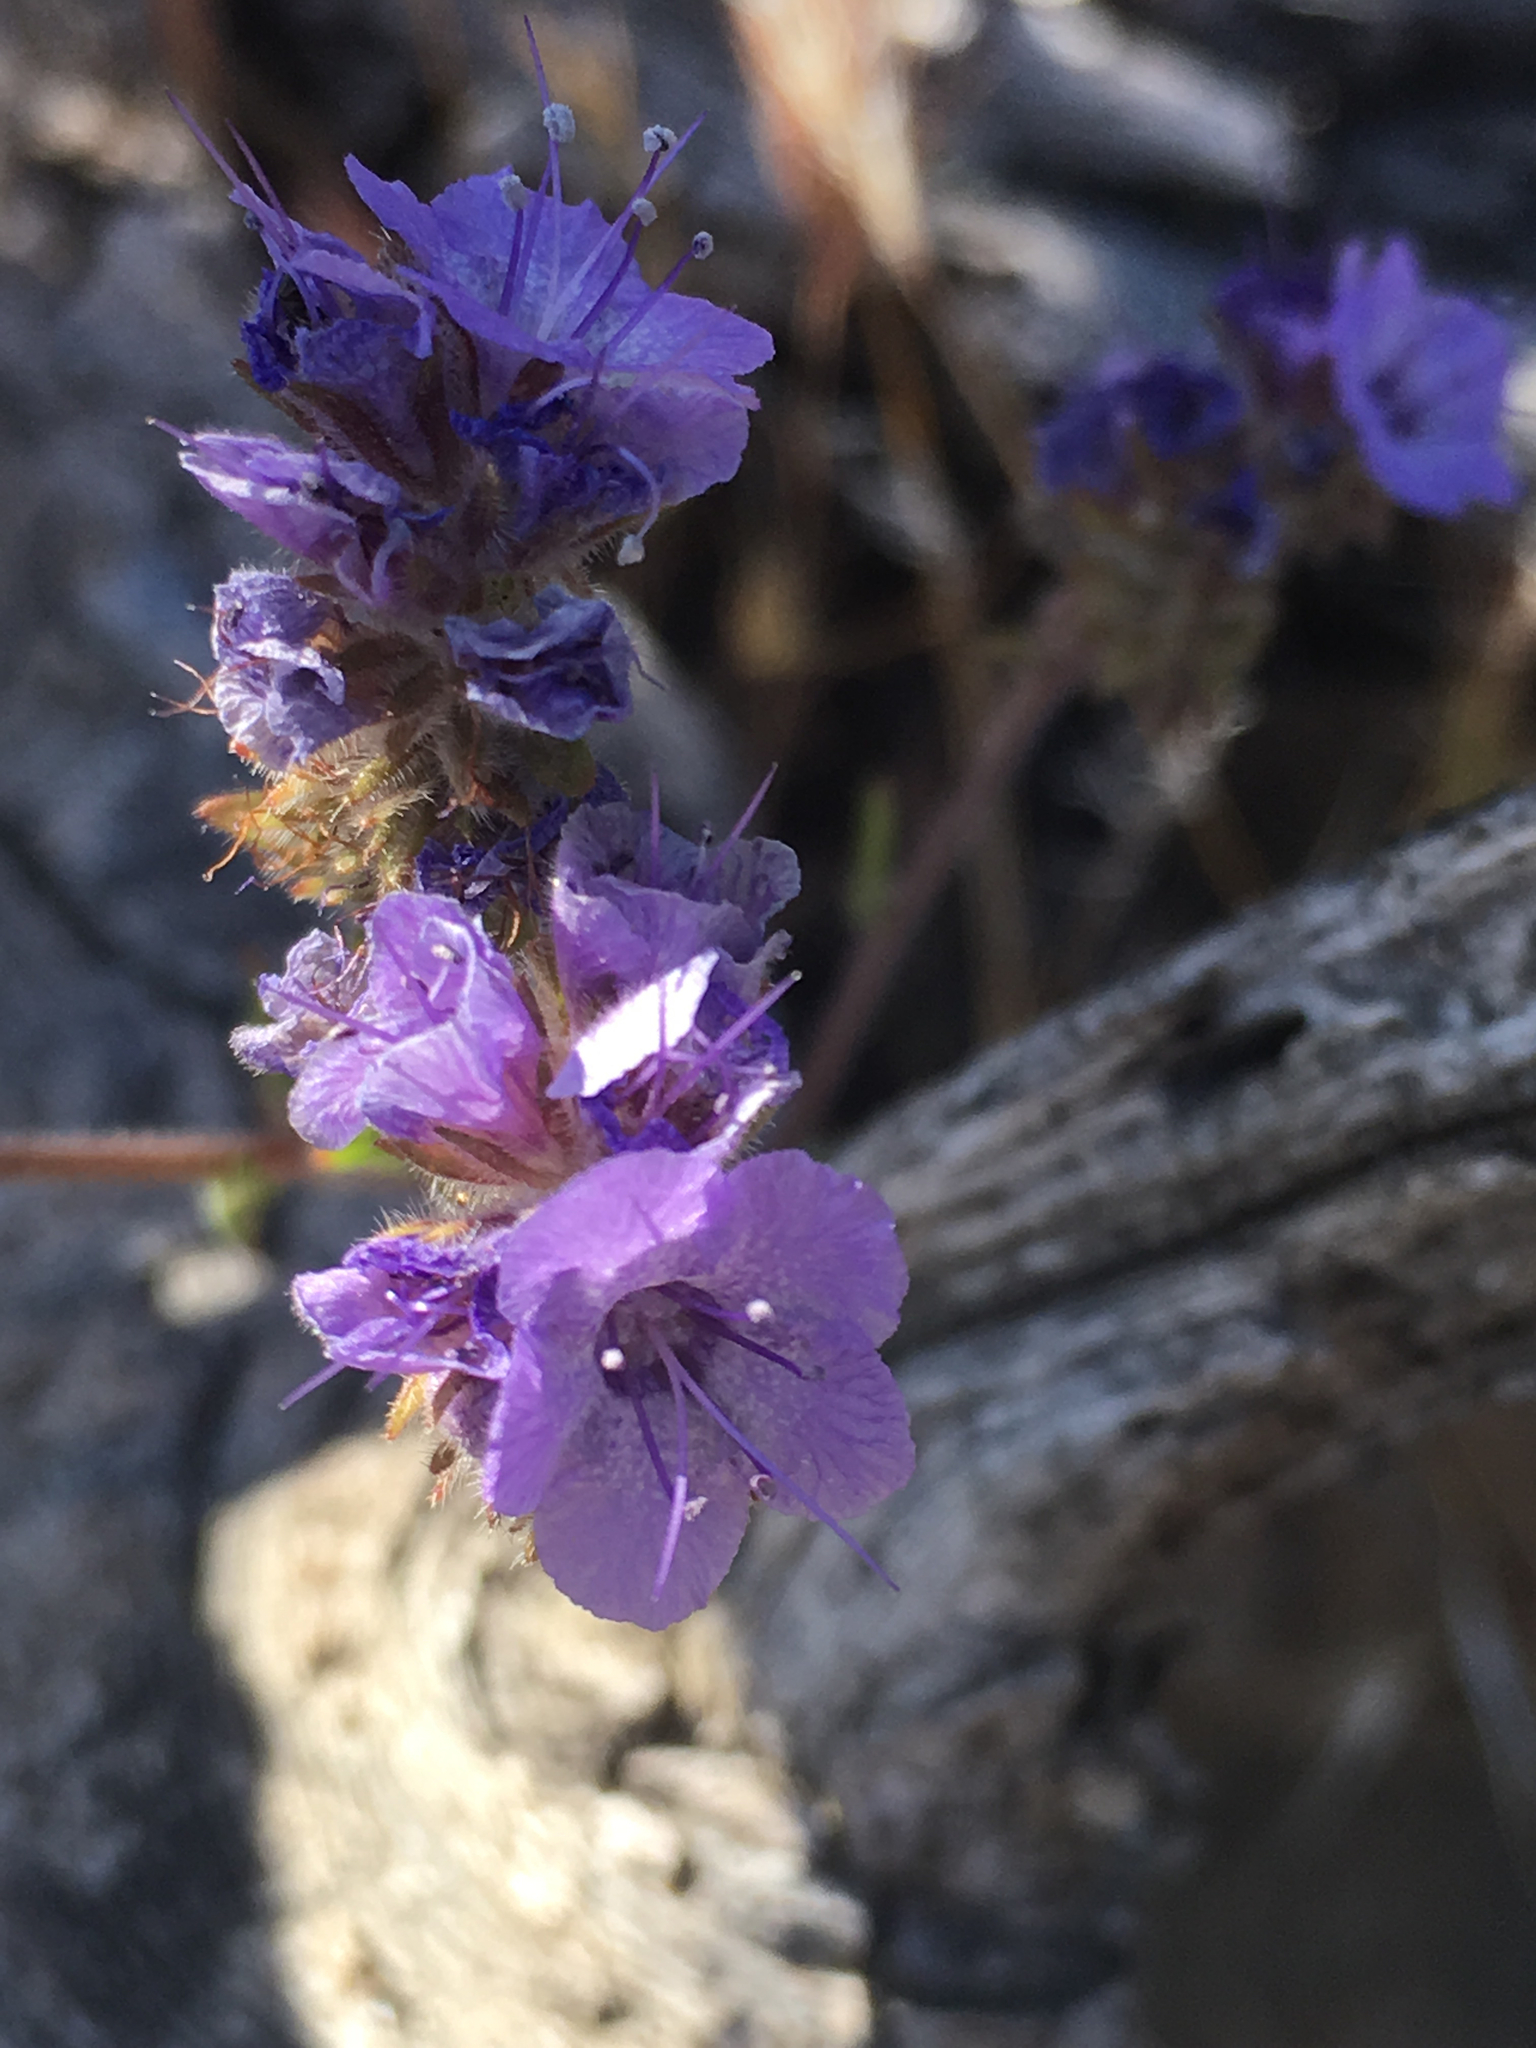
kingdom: Plantae
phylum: Tracheophyta
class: Magnoliopsida
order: Boraginales
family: Hydrophyllaceae
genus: Phacelia
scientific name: Phacelia distans
